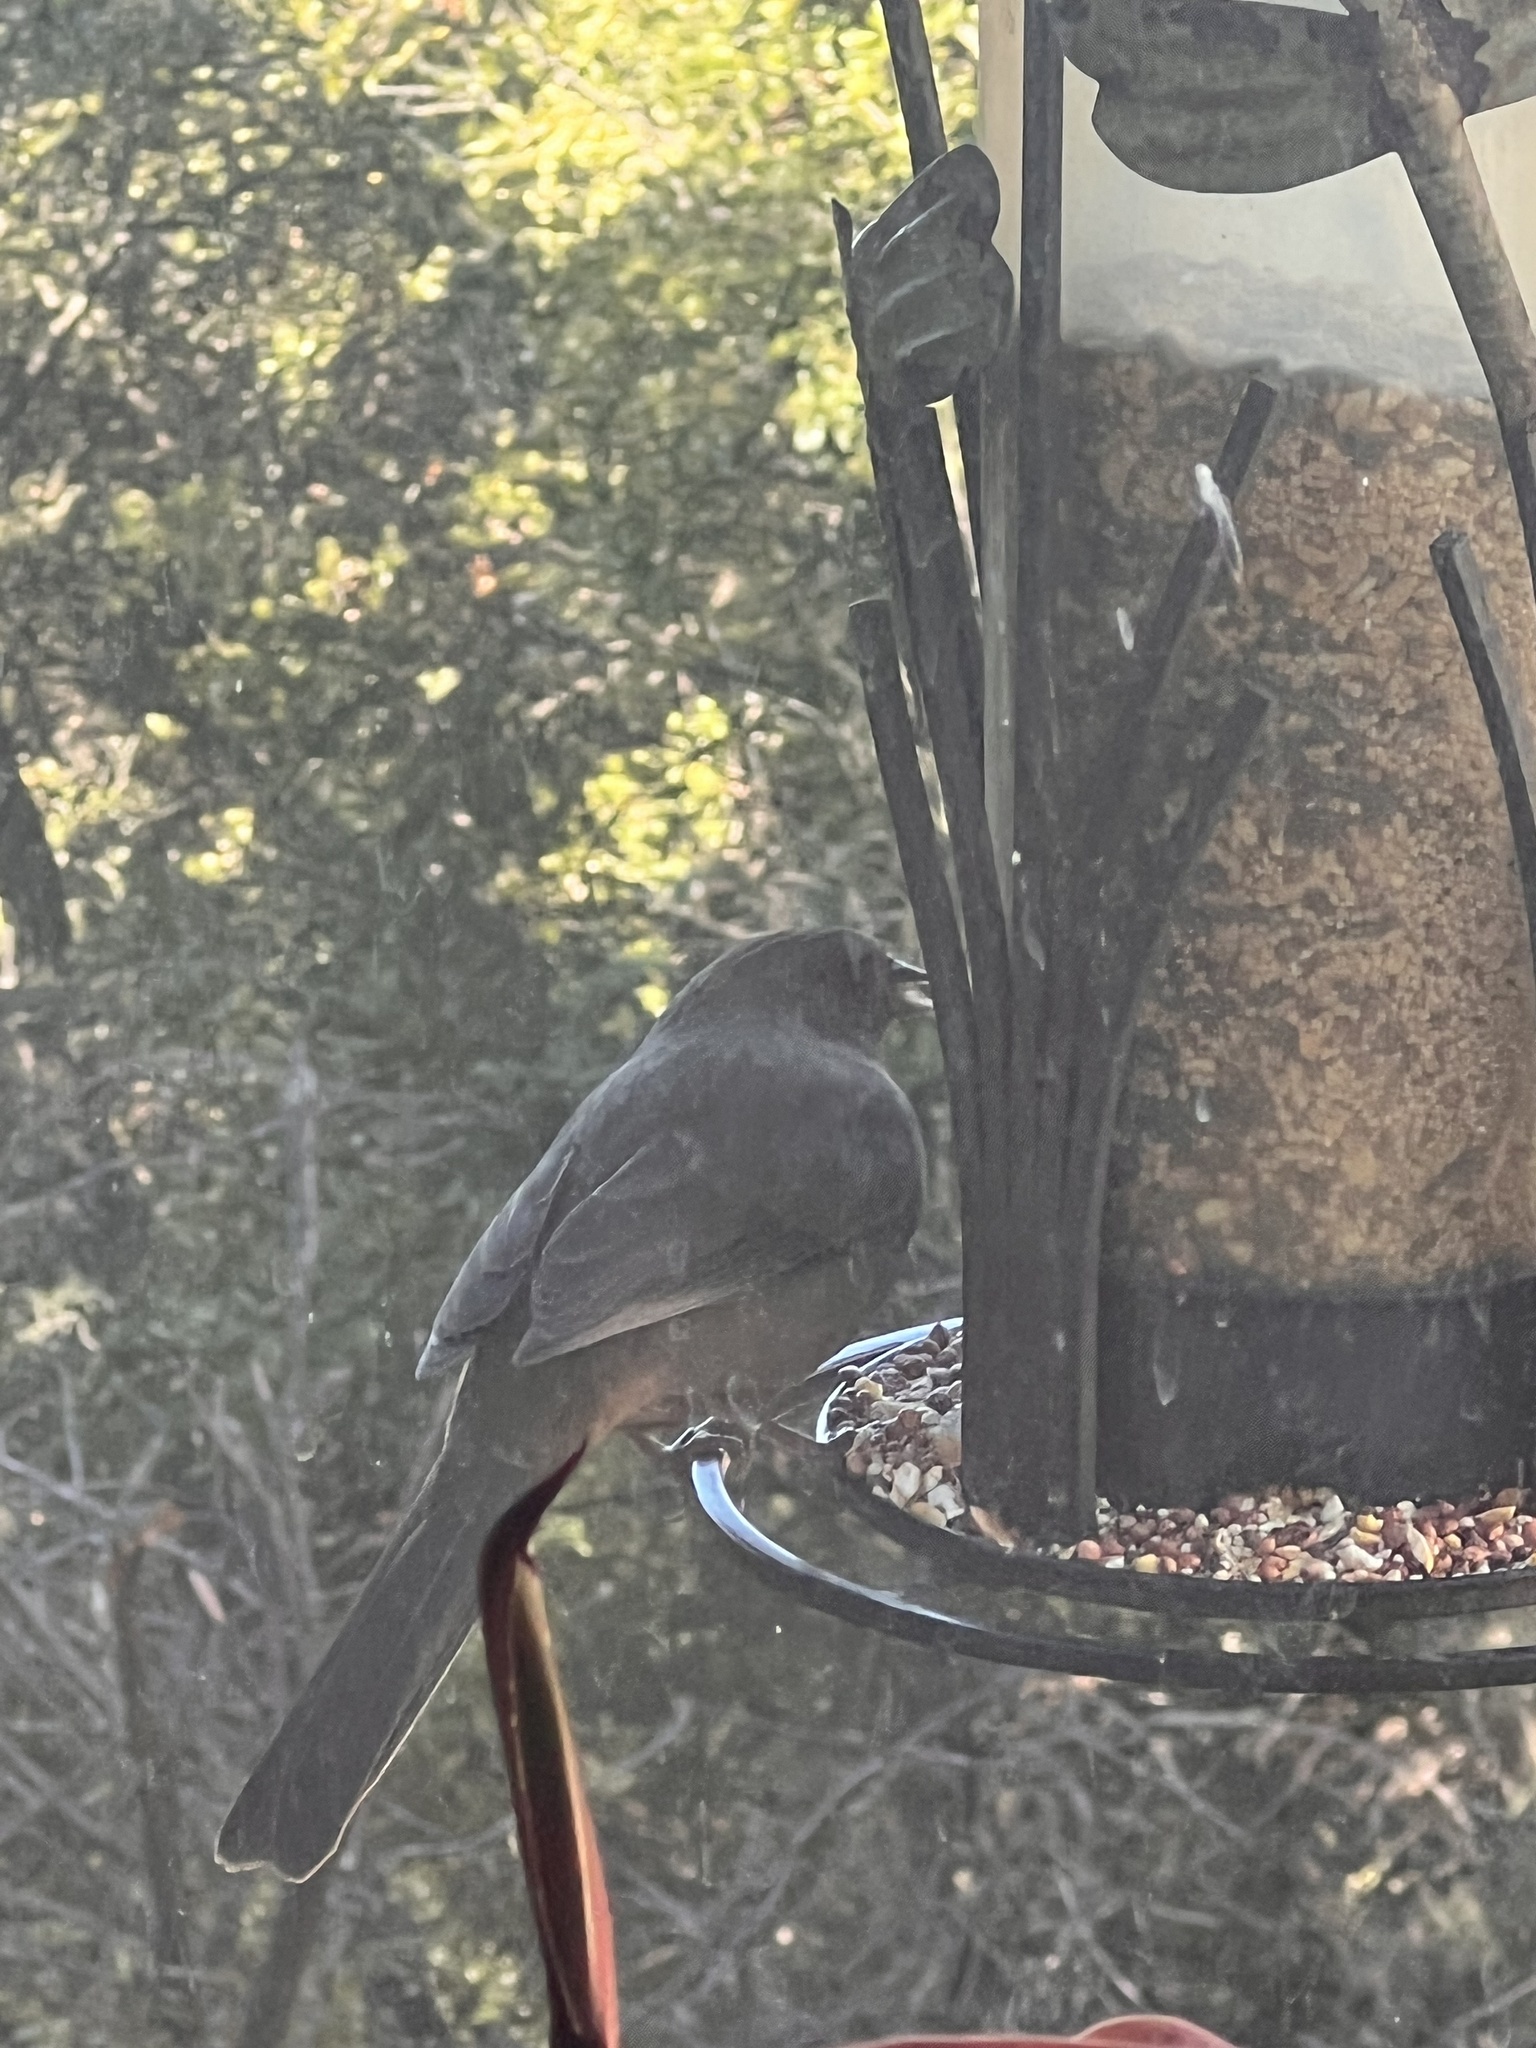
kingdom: Animalia
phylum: Chordata
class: Aves
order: Passeriformes
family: Passerellidae
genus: Melozone
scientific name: Melozone crissalis
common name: California towhee
